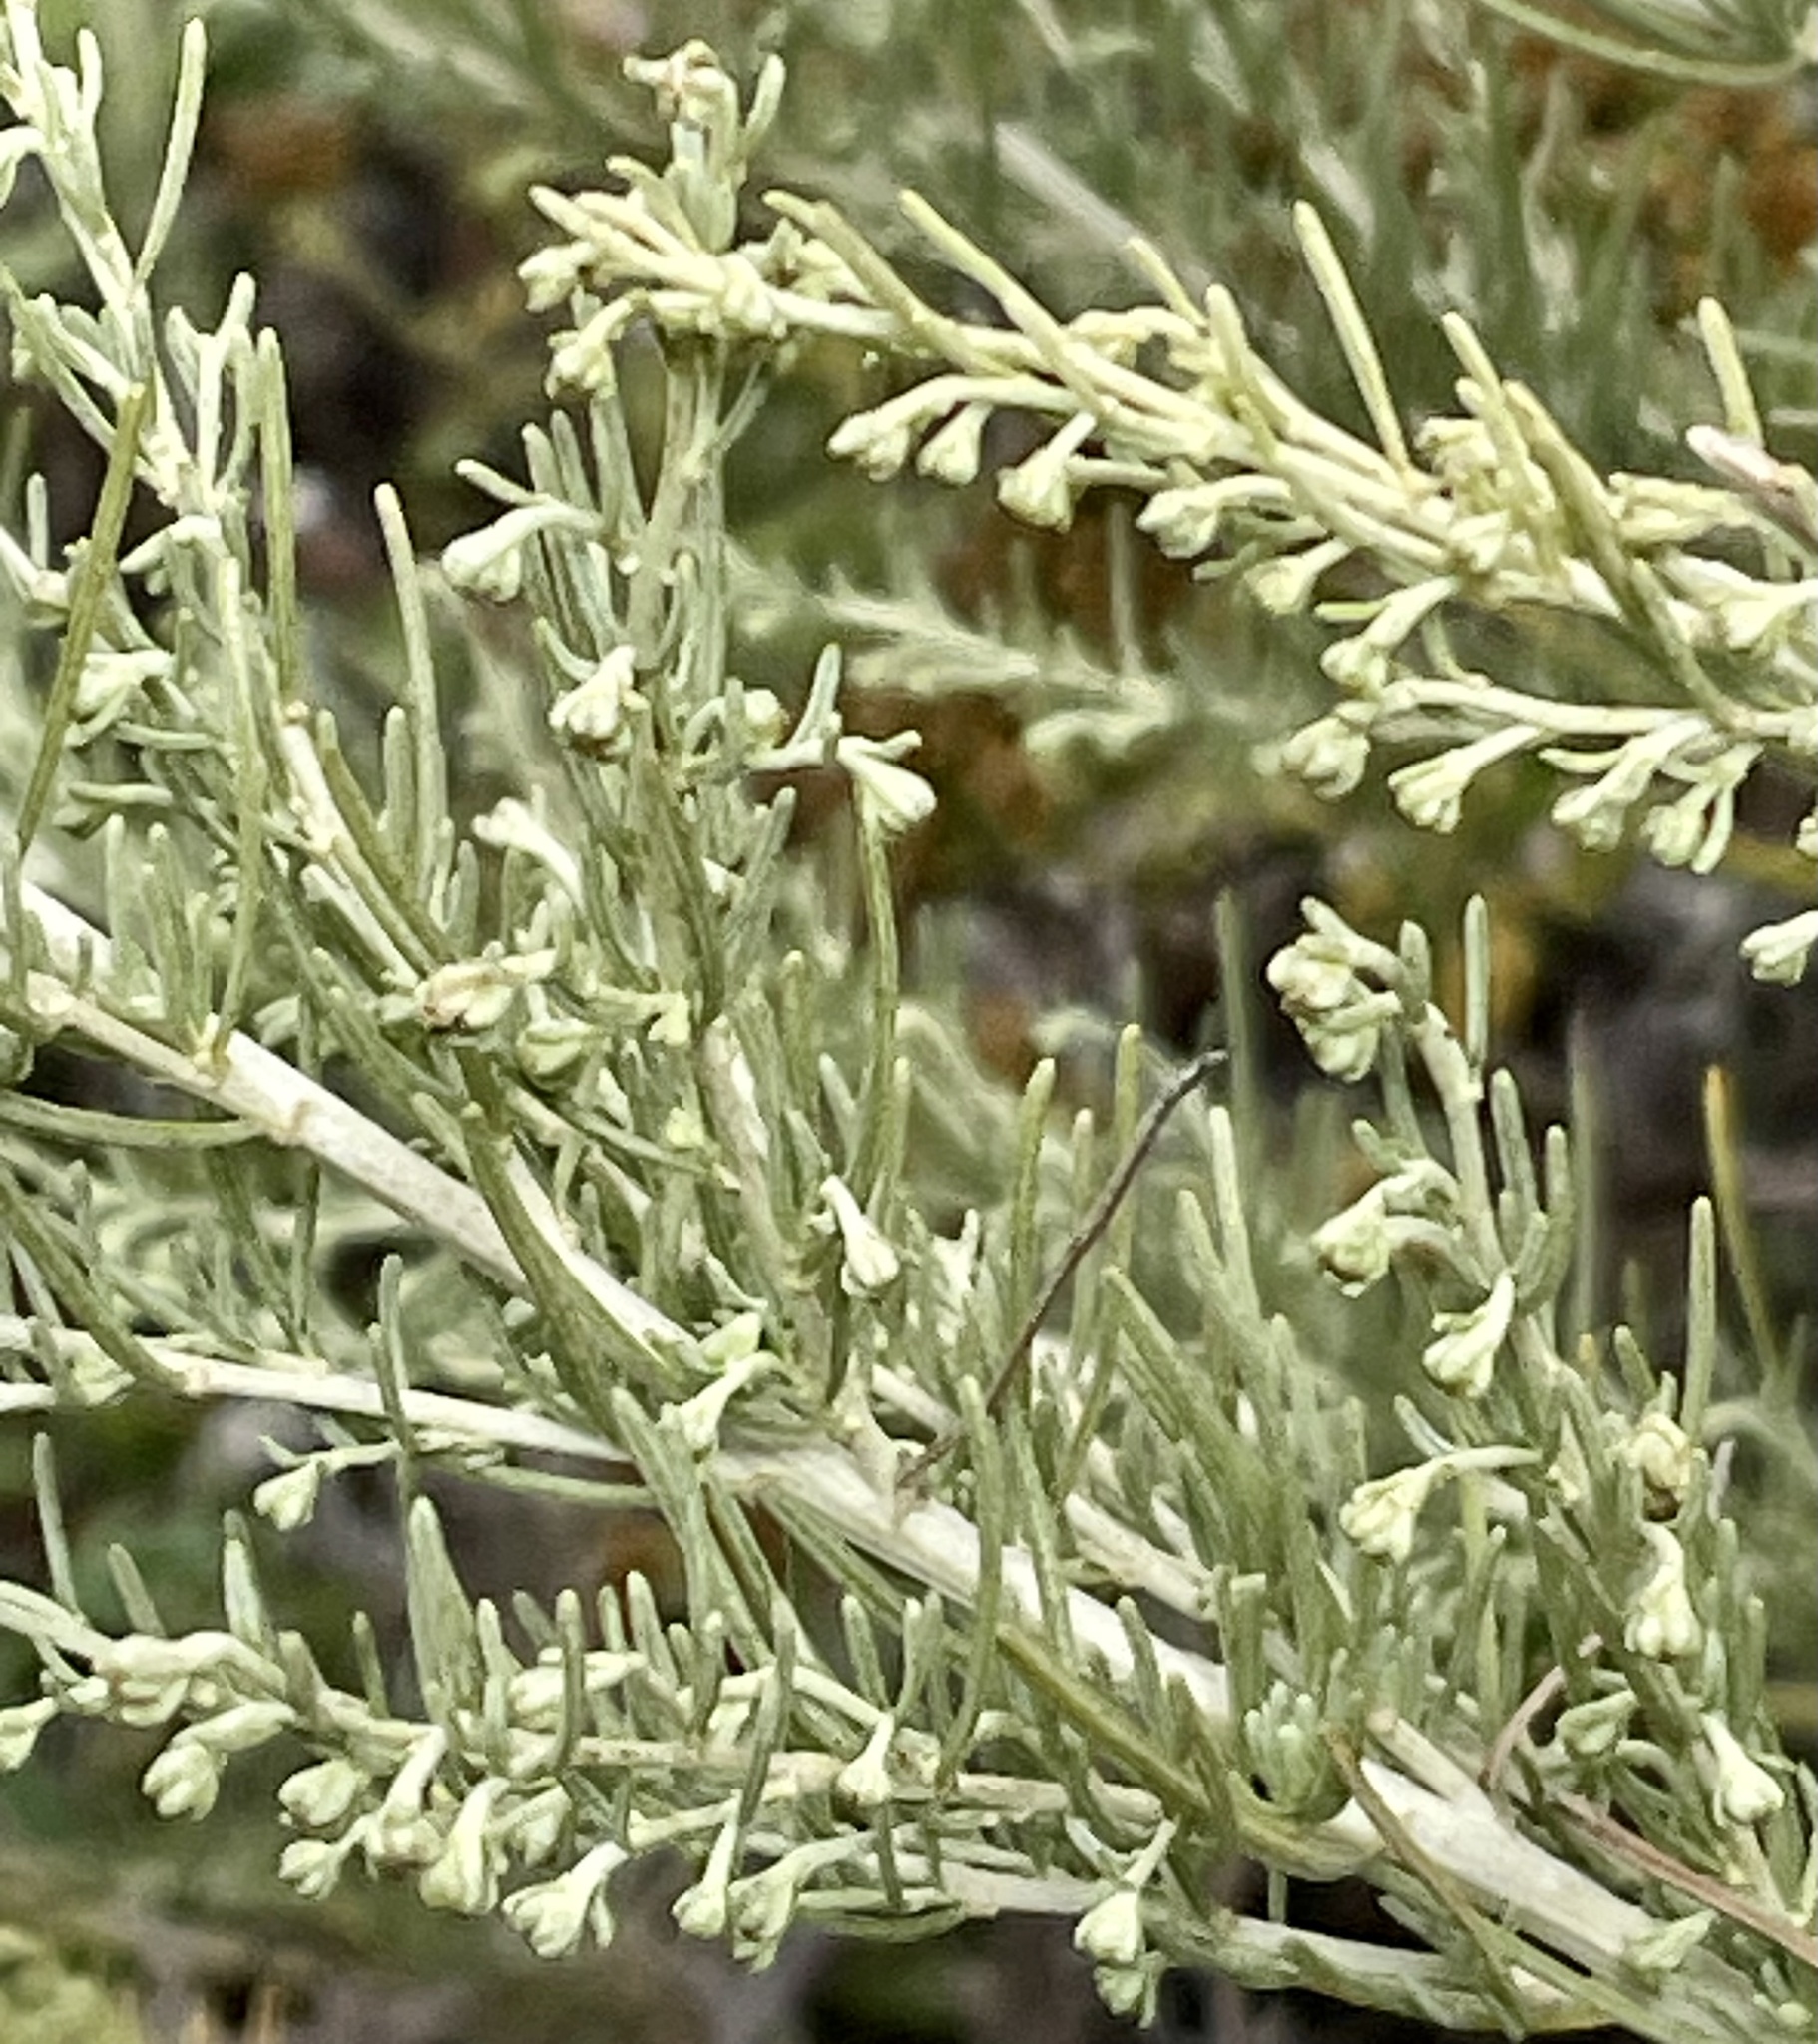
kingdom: Plantae
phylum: Tracheophyta
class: Magnoliopsida
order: Asterales
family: Asteraceae
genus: Artemisia
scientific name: Artemisia californica
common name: California sagebrush
